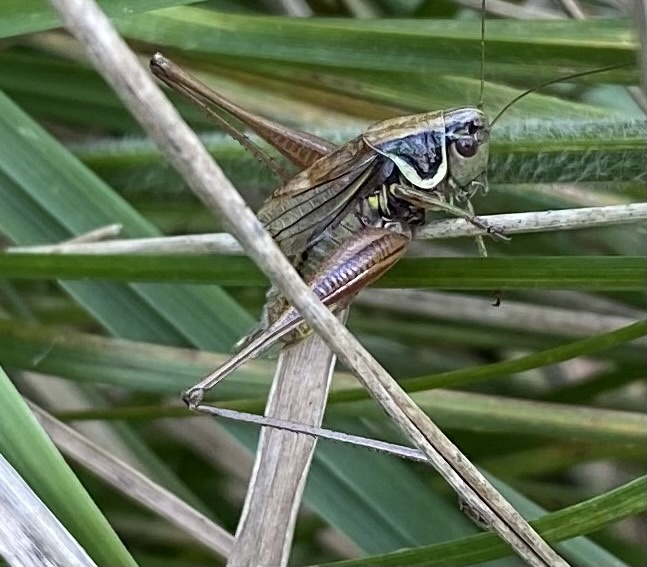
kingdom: Animalia
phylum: Arthropoda
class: Insecta
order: Orthoptera
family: Tettigoniidae
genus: Roeseliana
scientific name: Roeseliana roeselii
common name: Roesel's bush cricket
